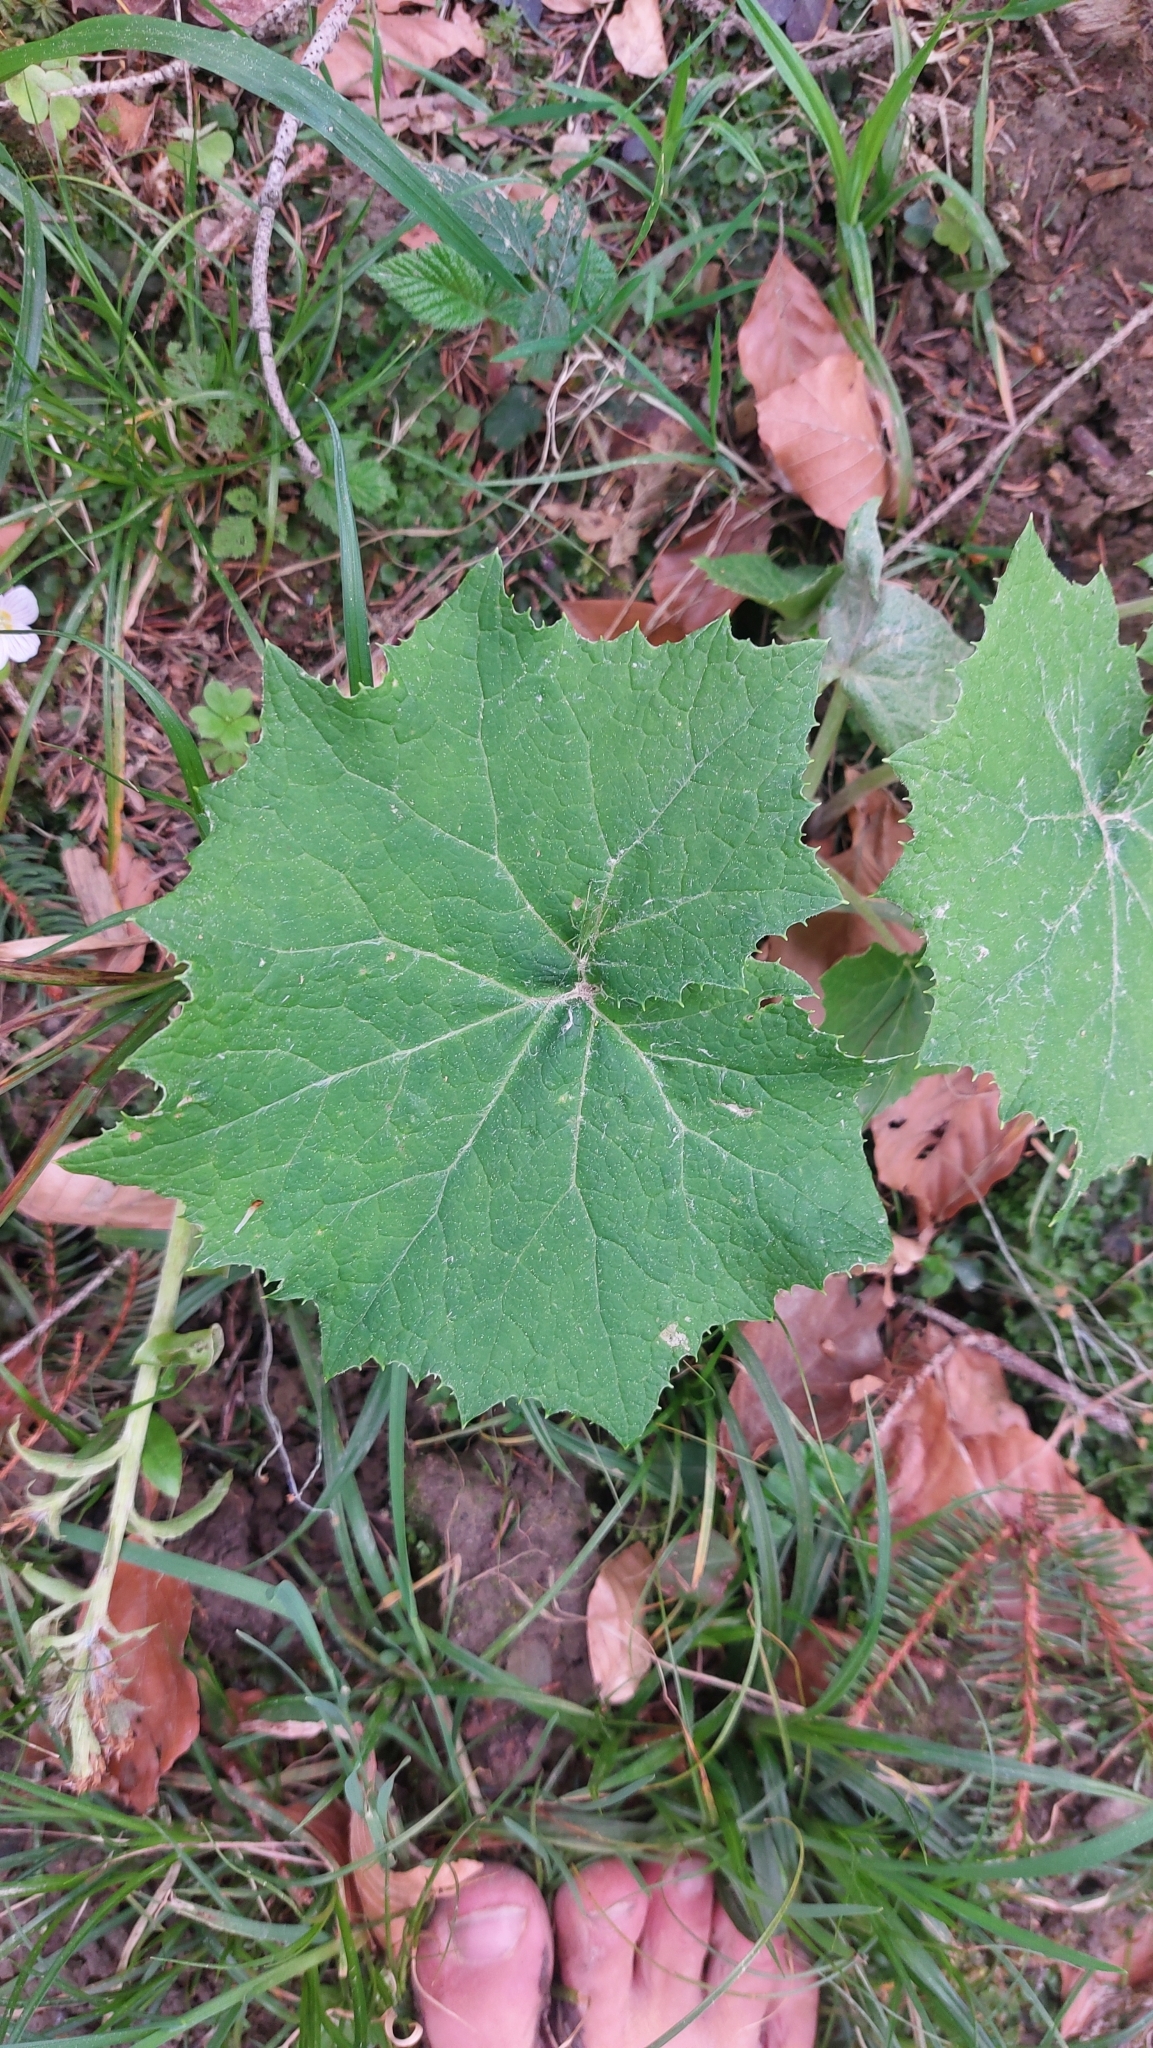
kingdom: Plantae
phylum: Tracheophyta
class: Magnoliopsida
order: Asterales
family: Asteraceae
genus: Petasites
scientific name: Petasites albus
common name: White butterbur
